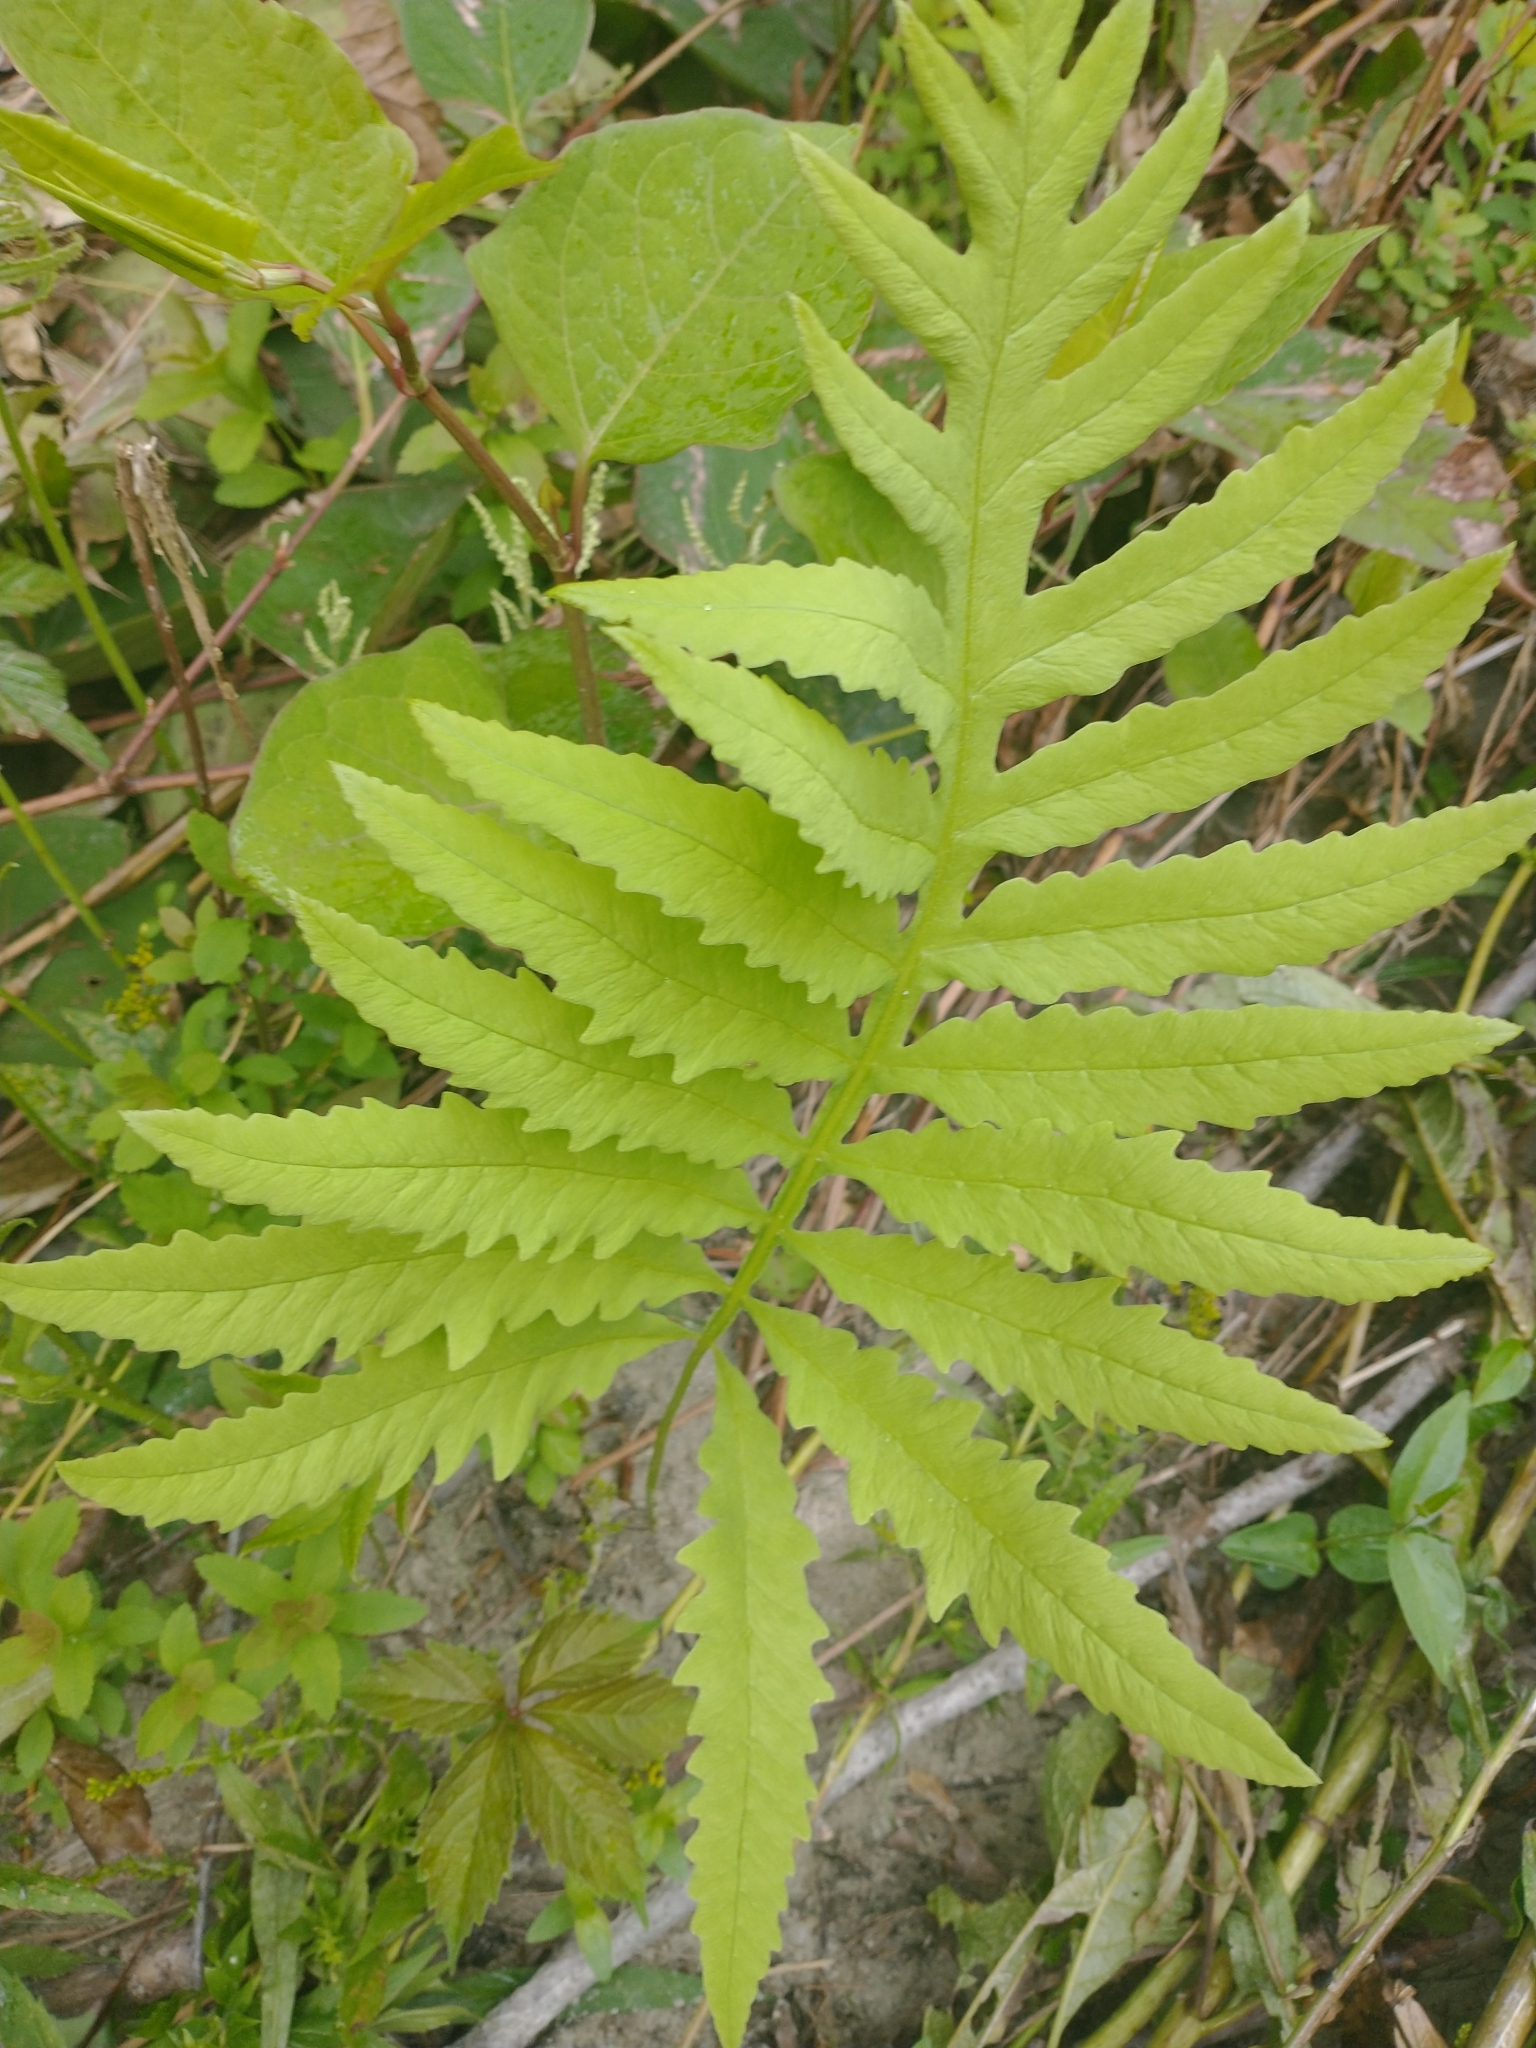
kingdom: Plantae
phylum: Tracheophyta
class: Polypodiopsida
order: Polypodiales
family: Onocleaceae
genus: Onoclea
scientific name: Onoclea sensibilis
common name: Sensitive fern
